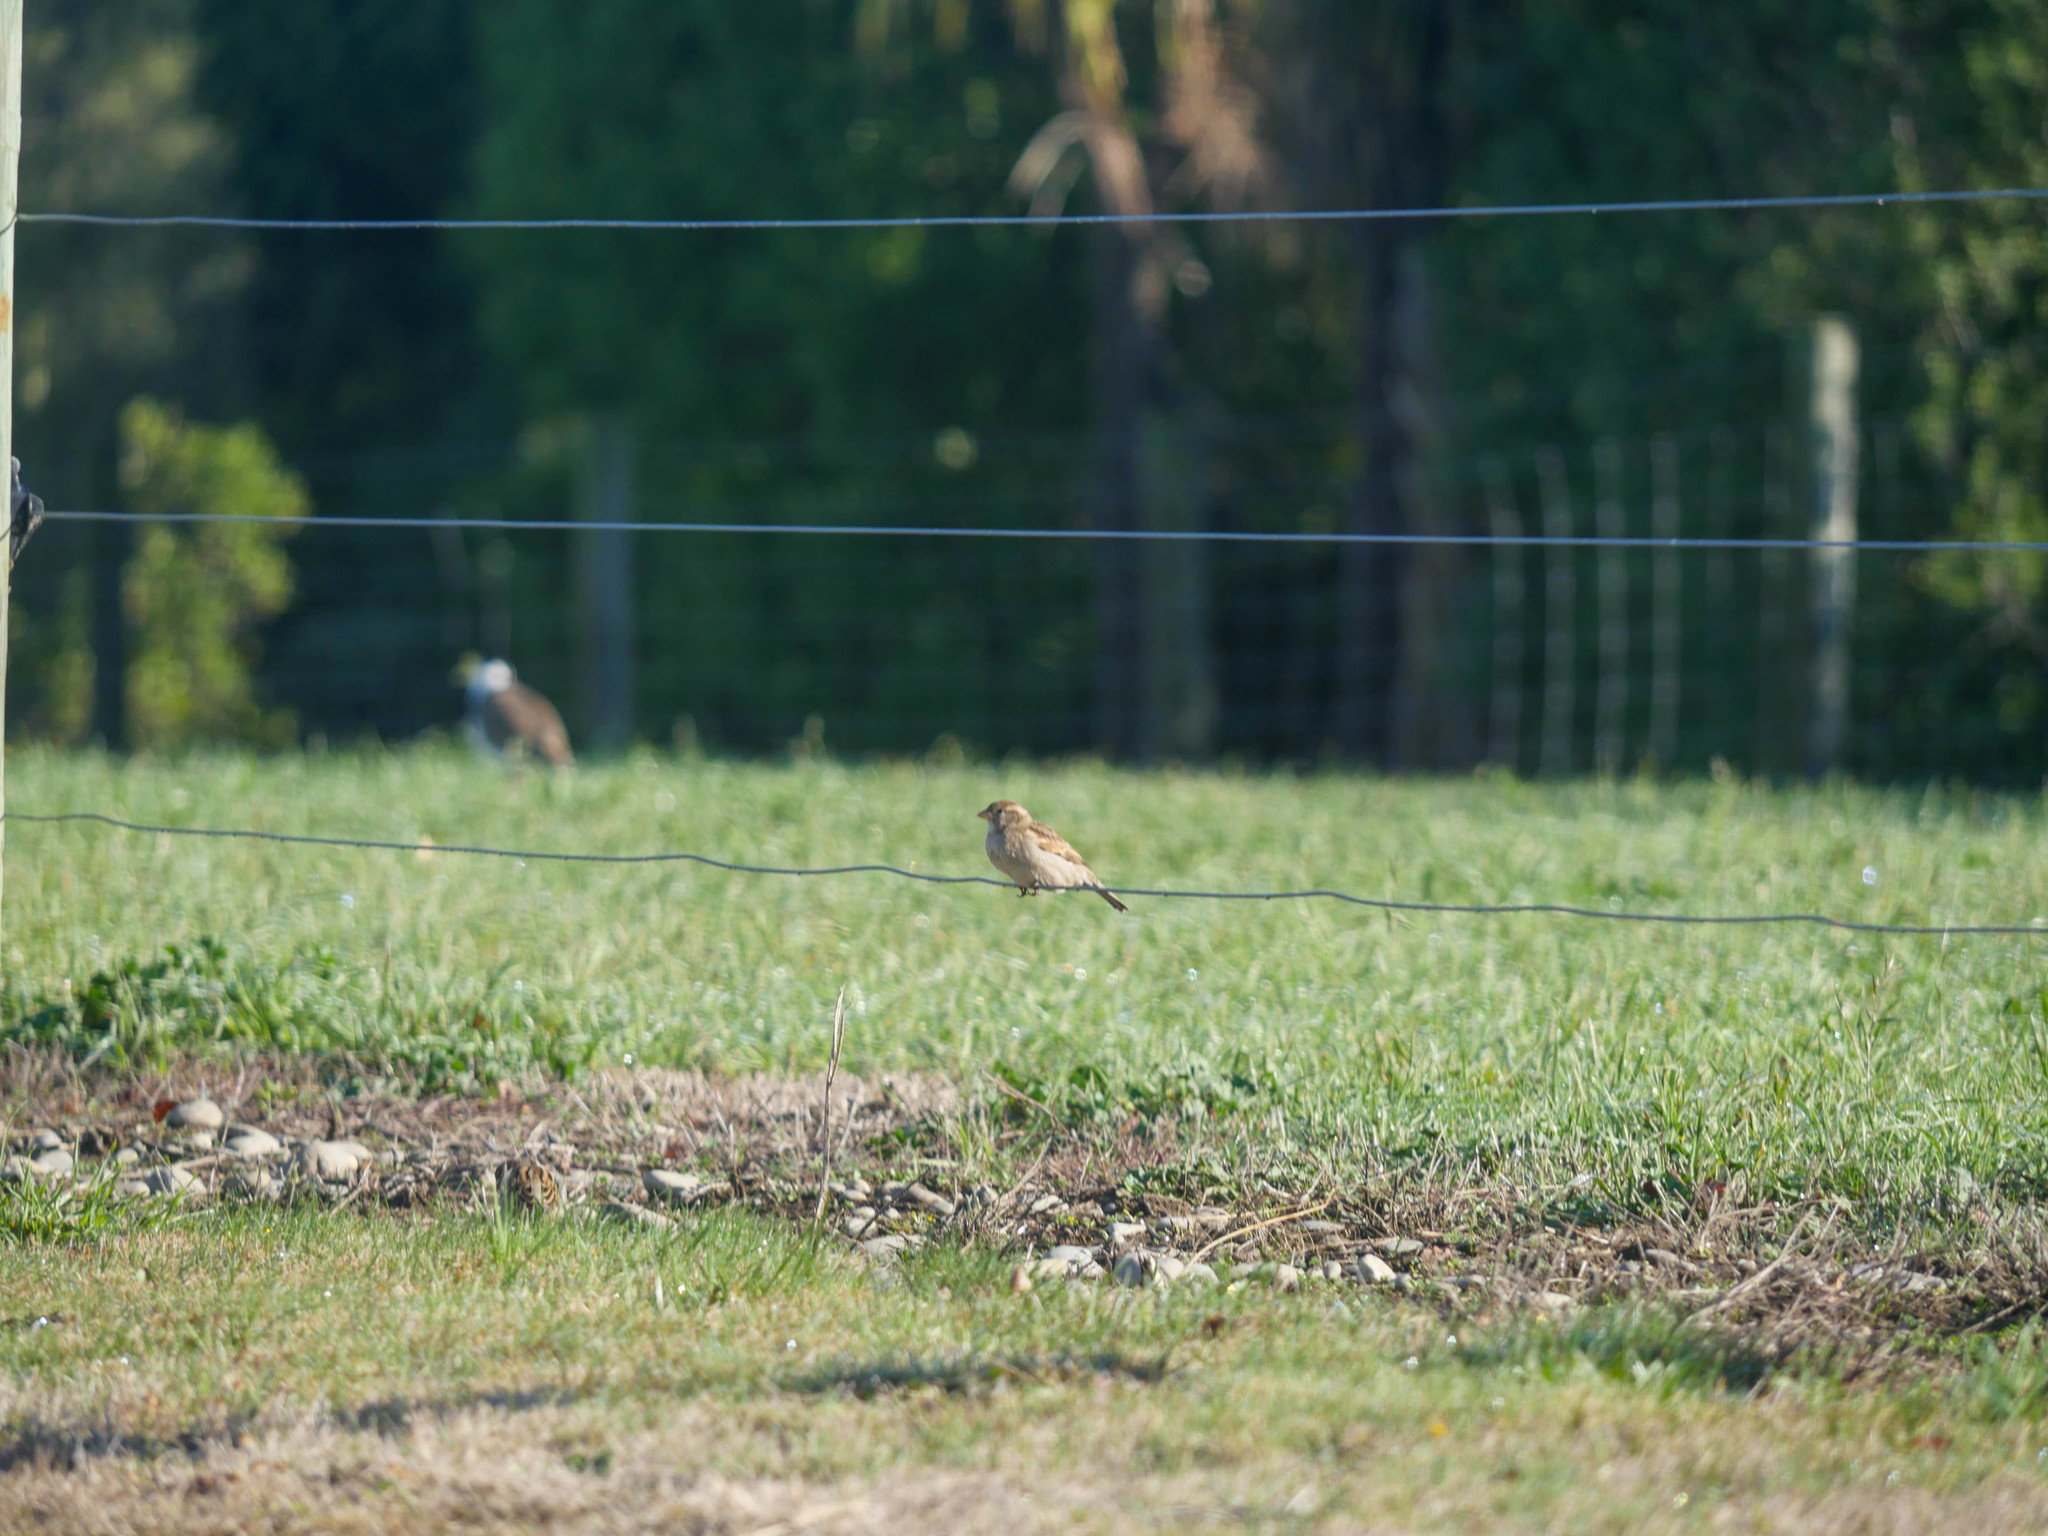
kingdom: Animalia
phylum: Chordata
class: Aves
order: Passeriformes
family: Passeridae
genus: Passer
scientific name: Passer domesticus
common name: House sparrow
